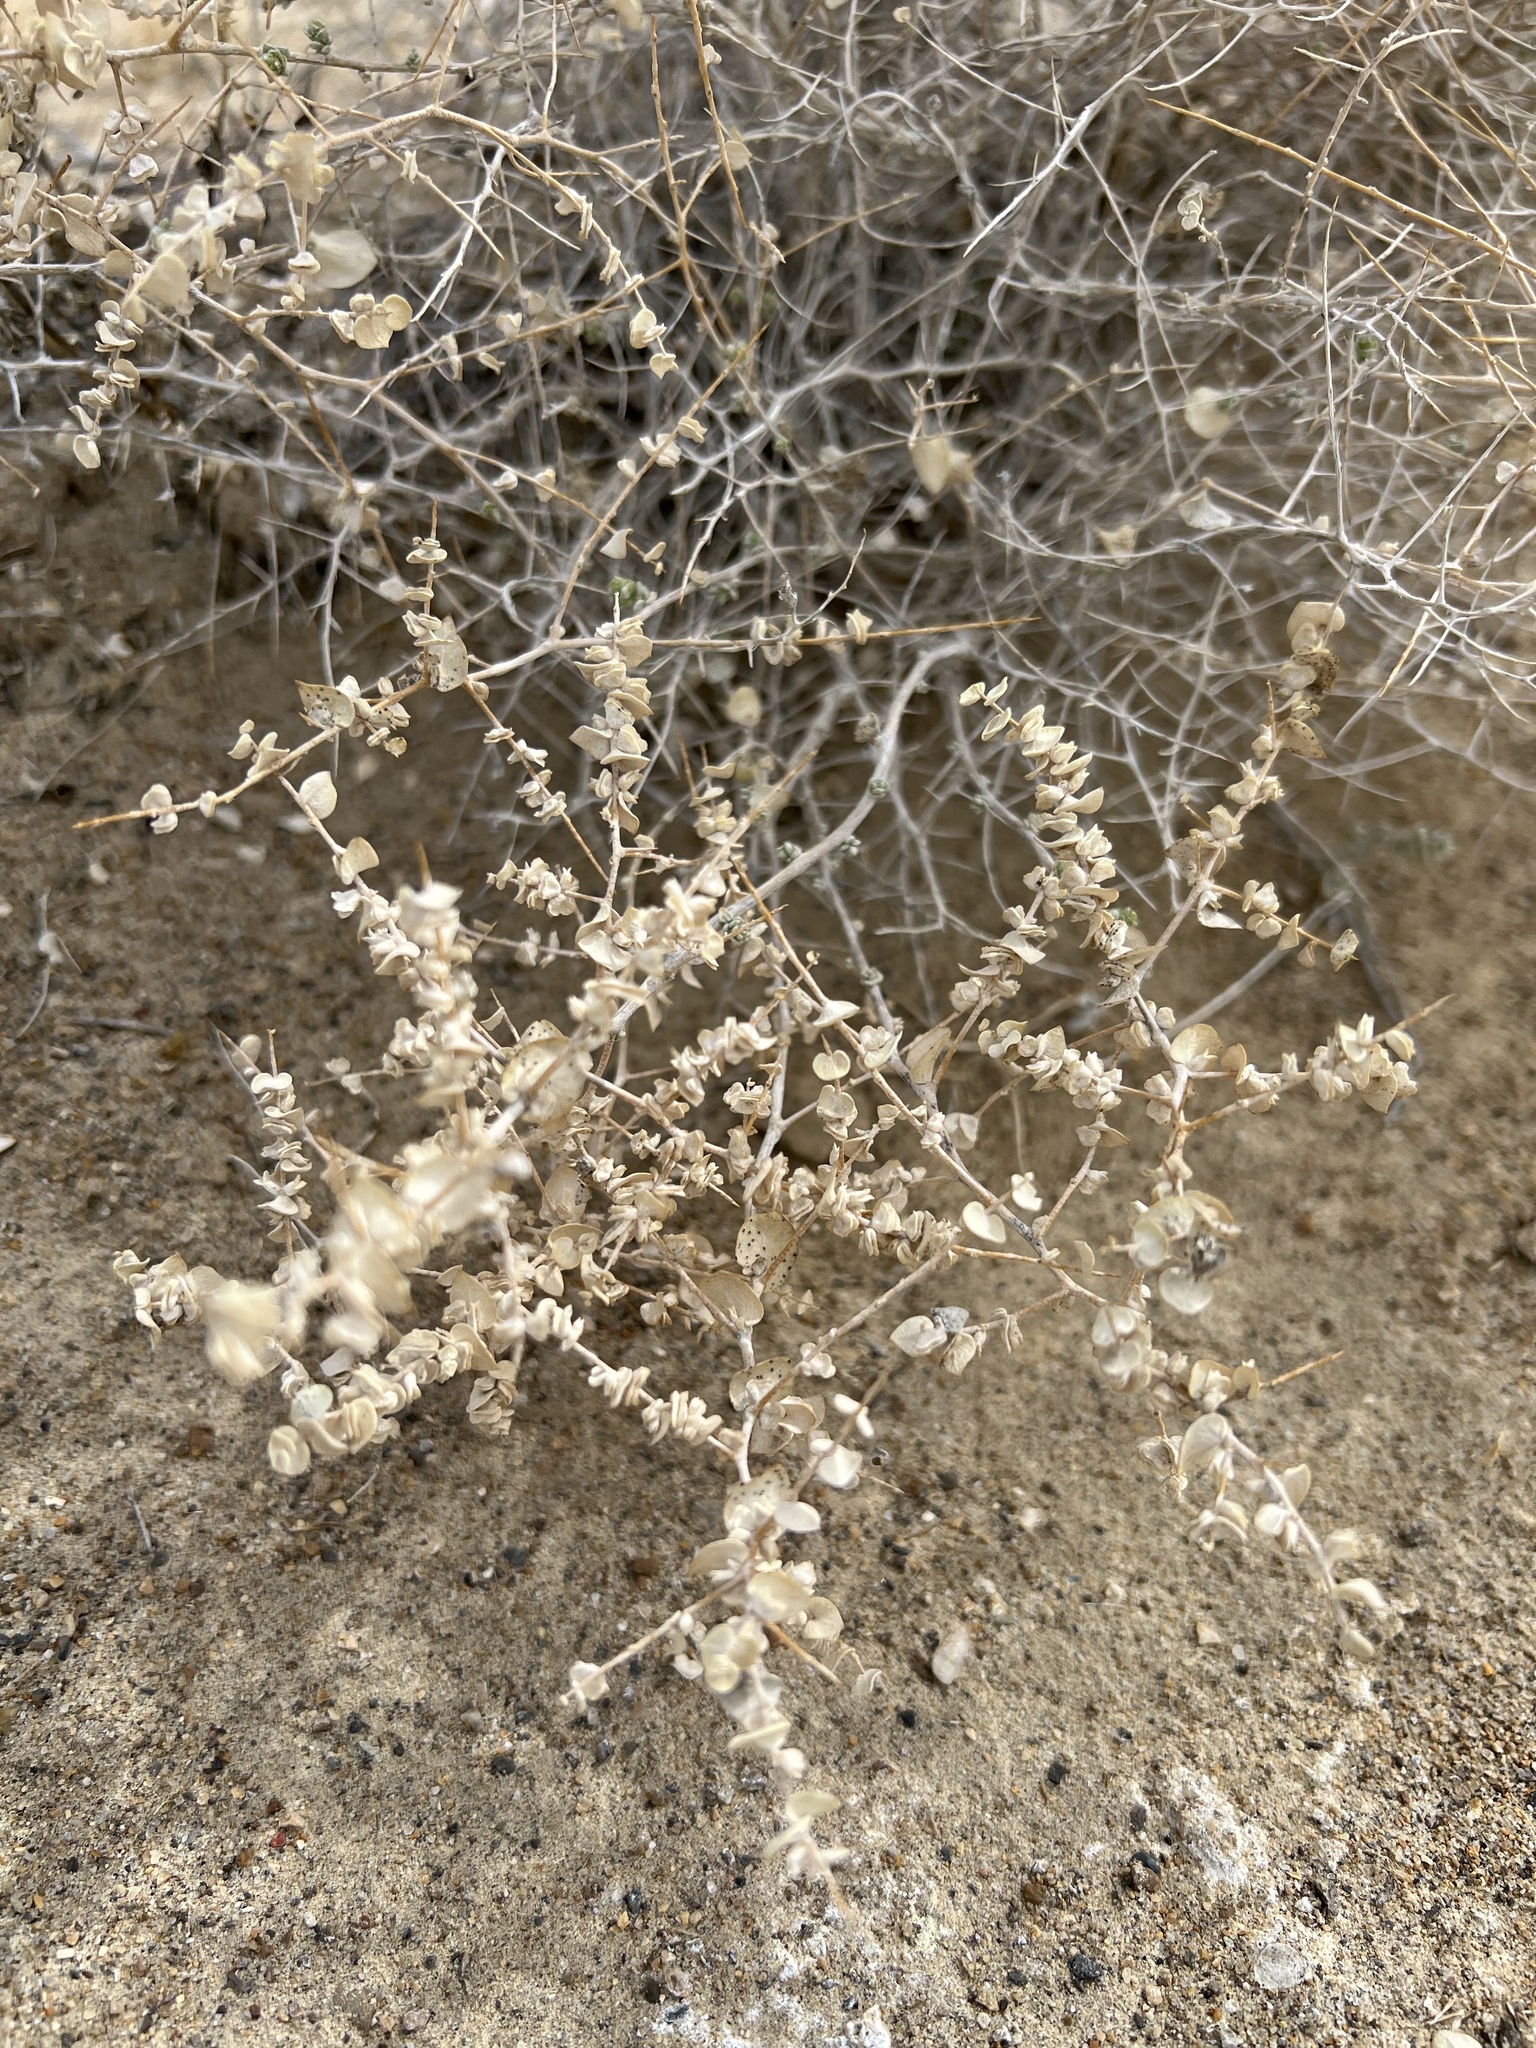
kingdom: Plantae
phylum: Tracheophyta
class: Magnoliopsida
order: Caryophyllales
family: Amaranthaceae
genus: Atriplex
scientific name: Atriplex parryi
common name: Parry's saltbush
